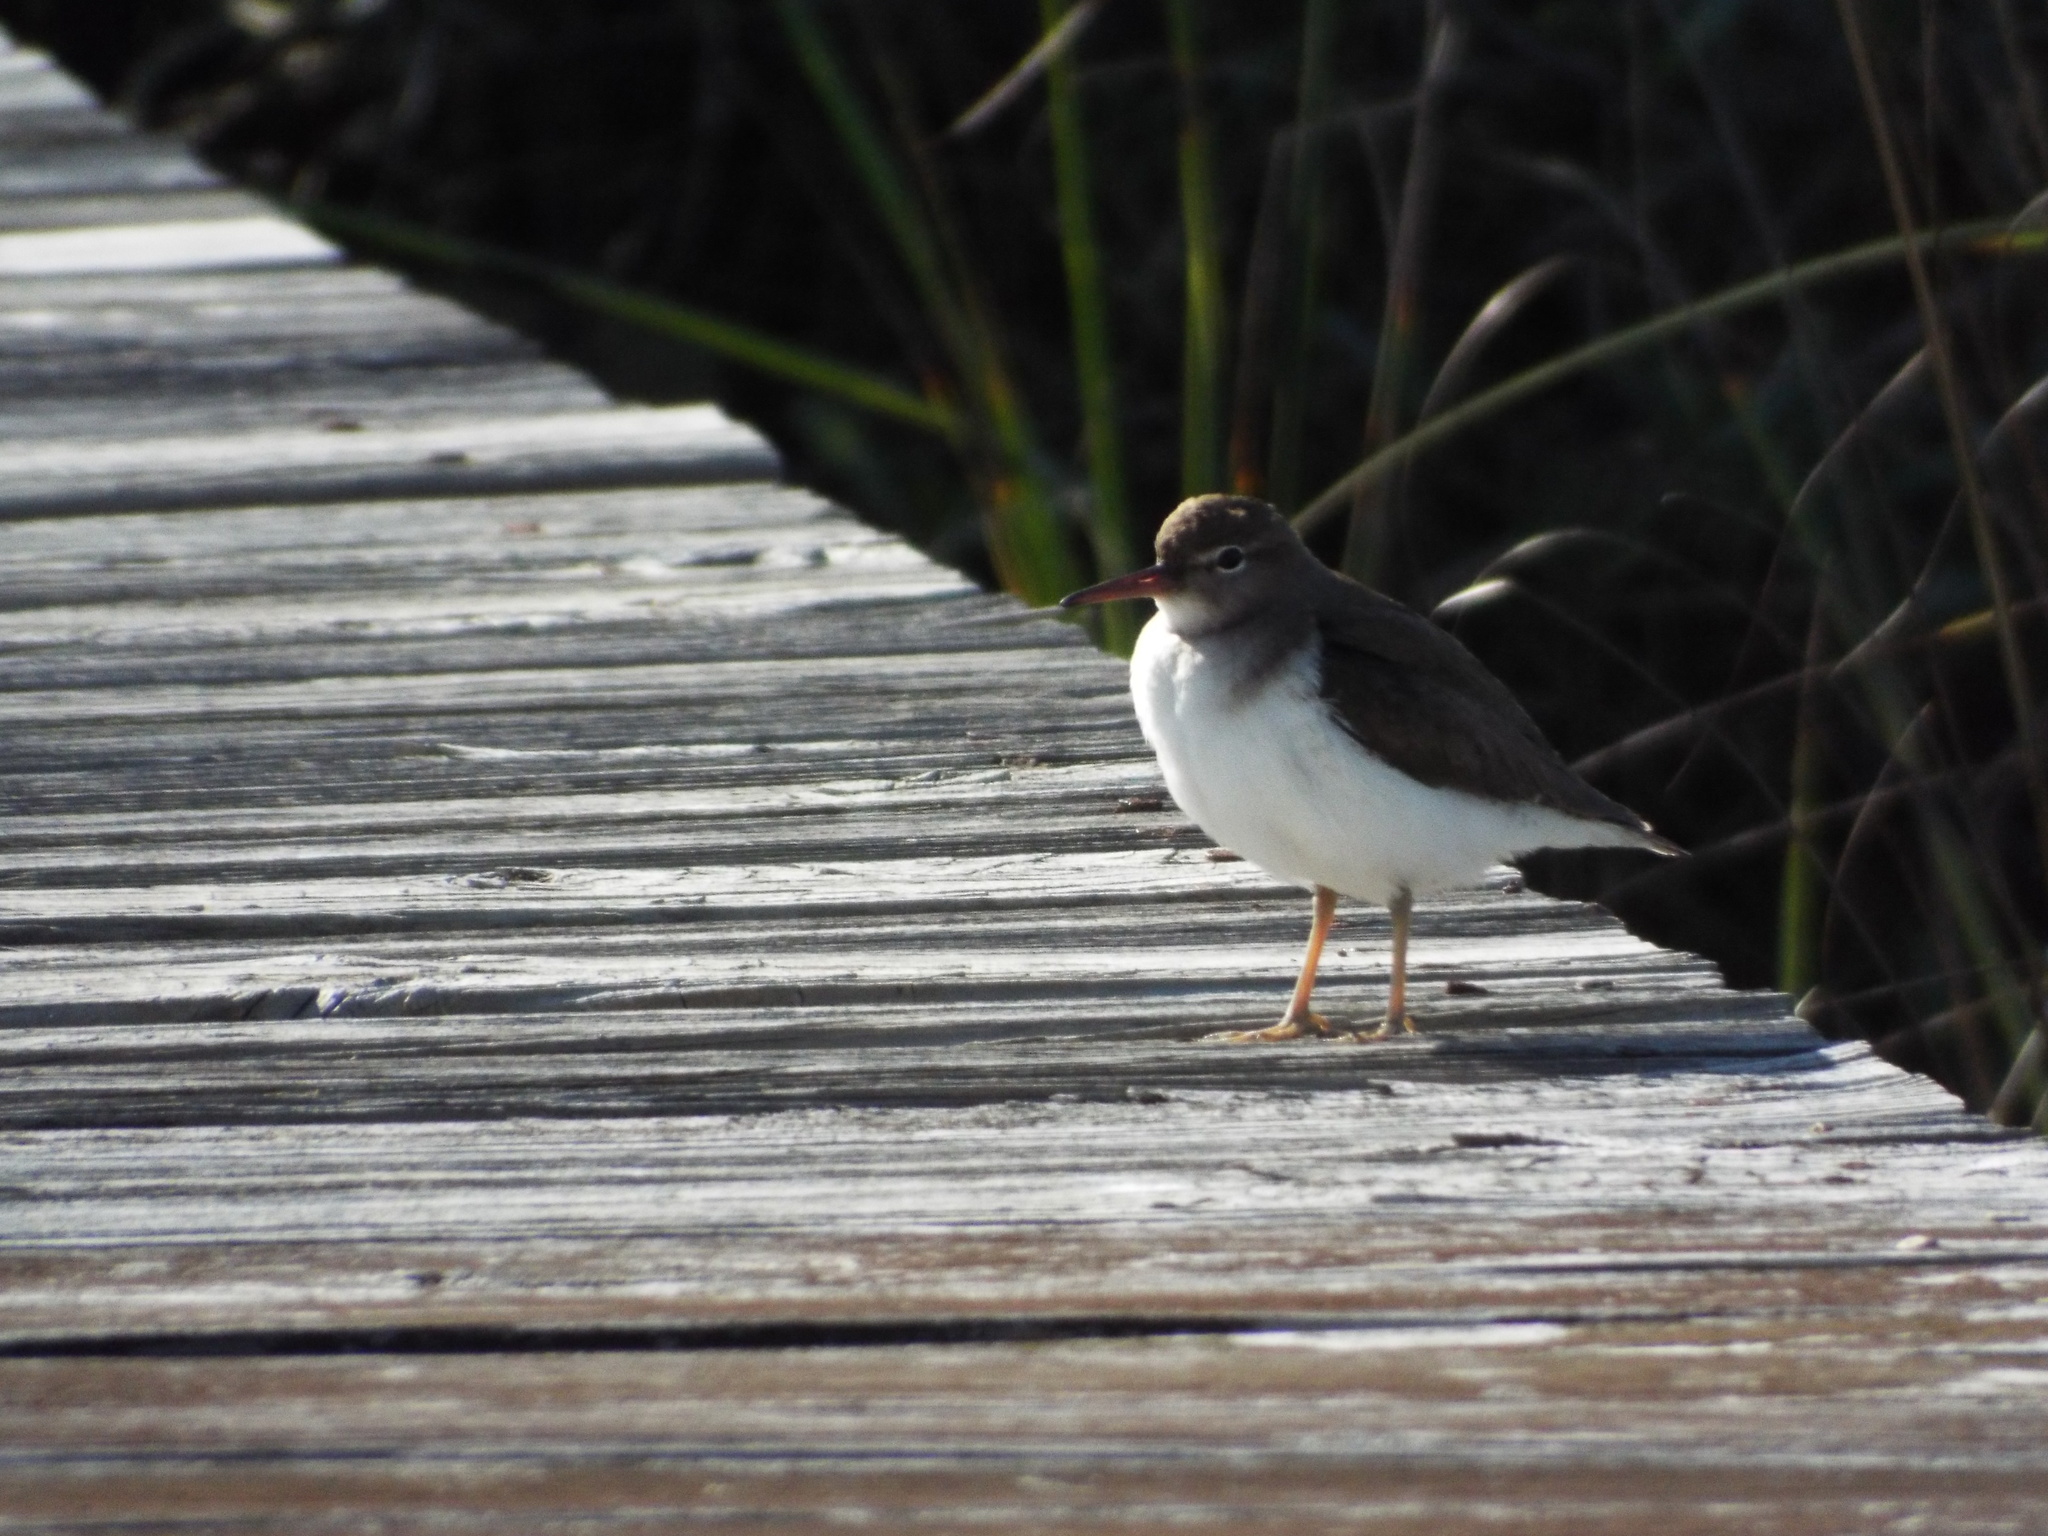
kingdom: Animalia
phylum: Chordata
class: Aves
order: Charadriiformes
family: Scolopacidae
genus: Actitis
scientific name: Actitis macularius
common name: Spotted sandpiper
